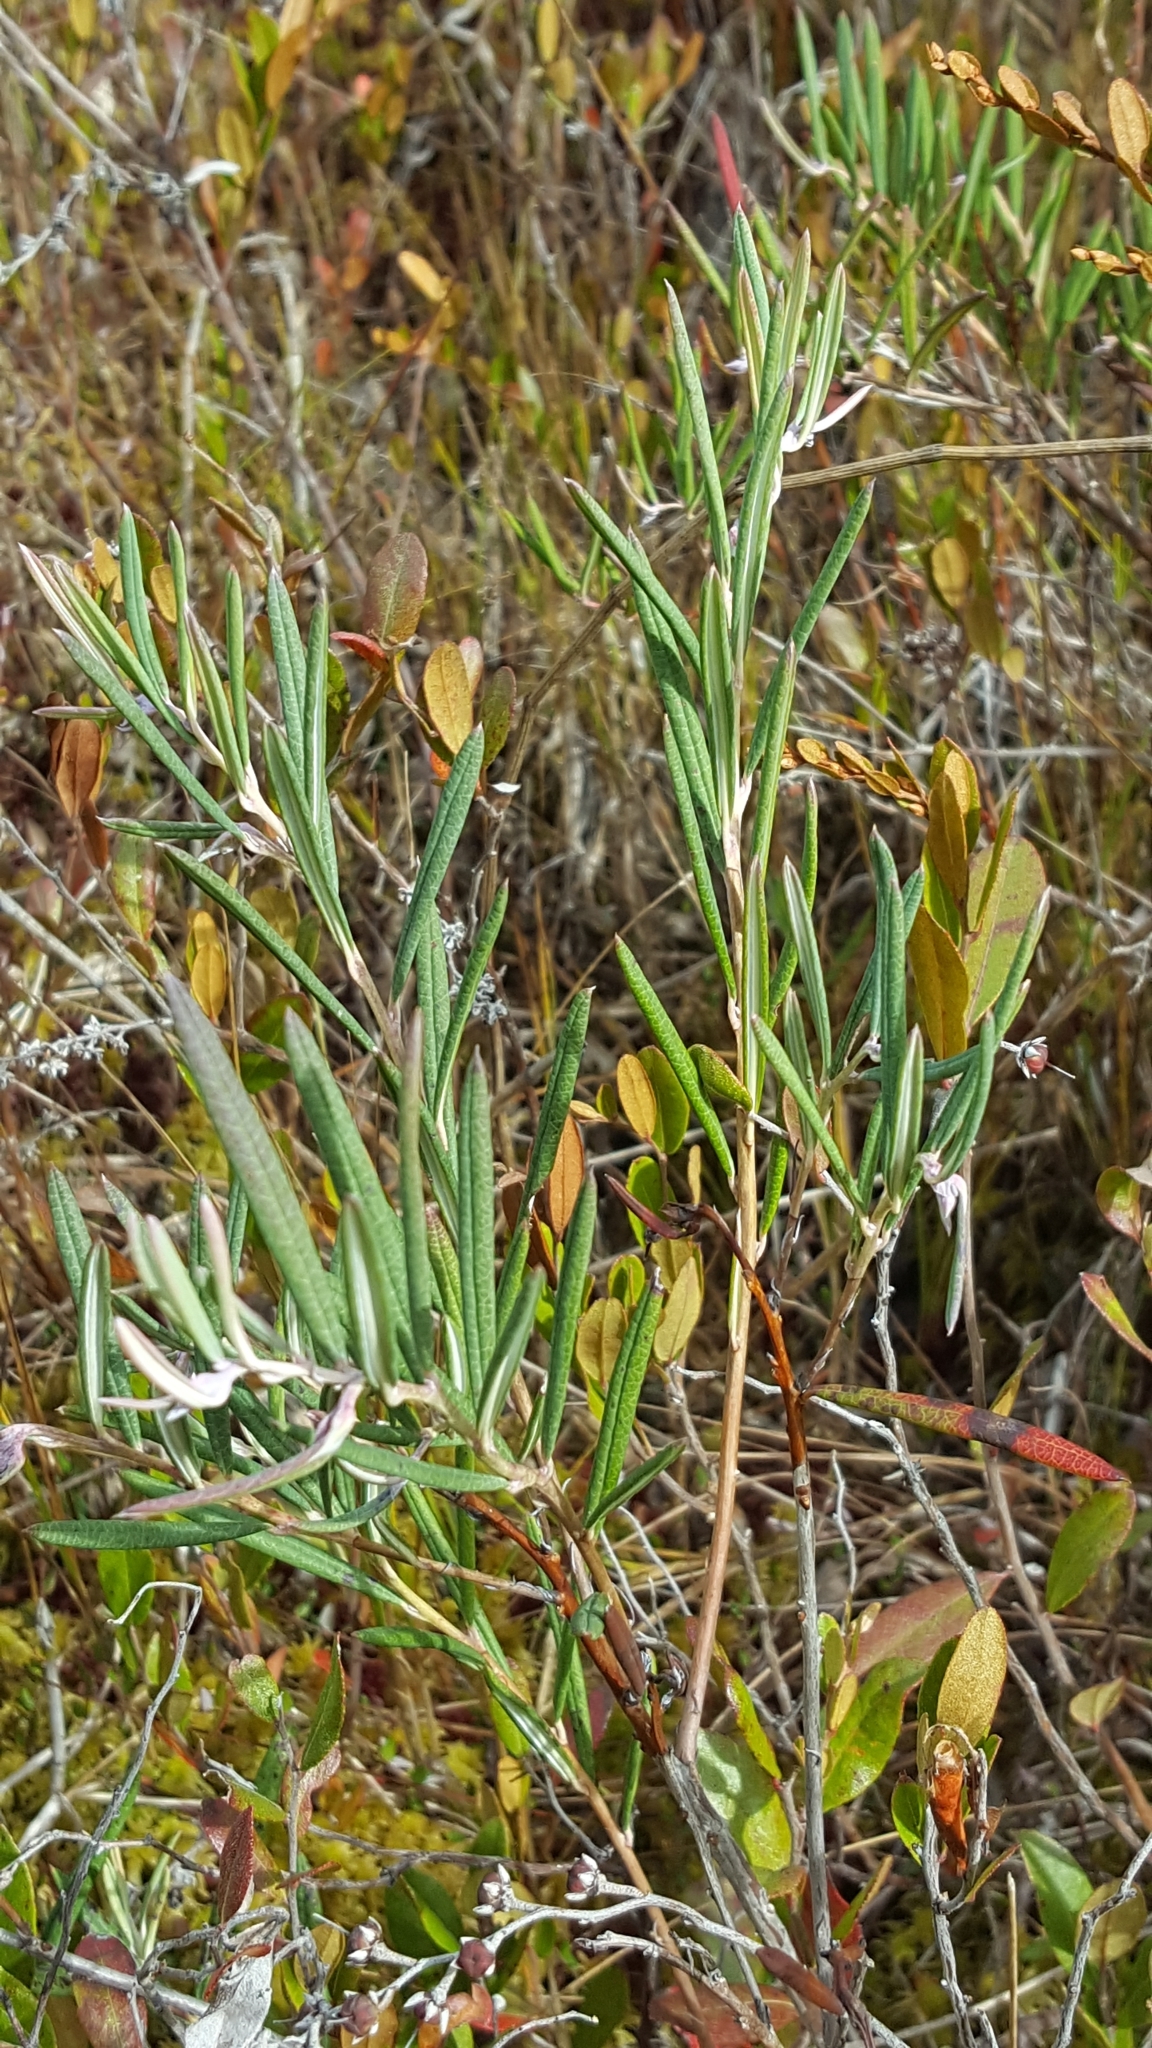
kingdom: Plantae
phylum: Tracheophyta
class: Magnoliopsida
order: Ericales
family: Ericaceae
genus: Andromeda
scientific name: Andromeda polifolia
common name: Bog-rosemary
